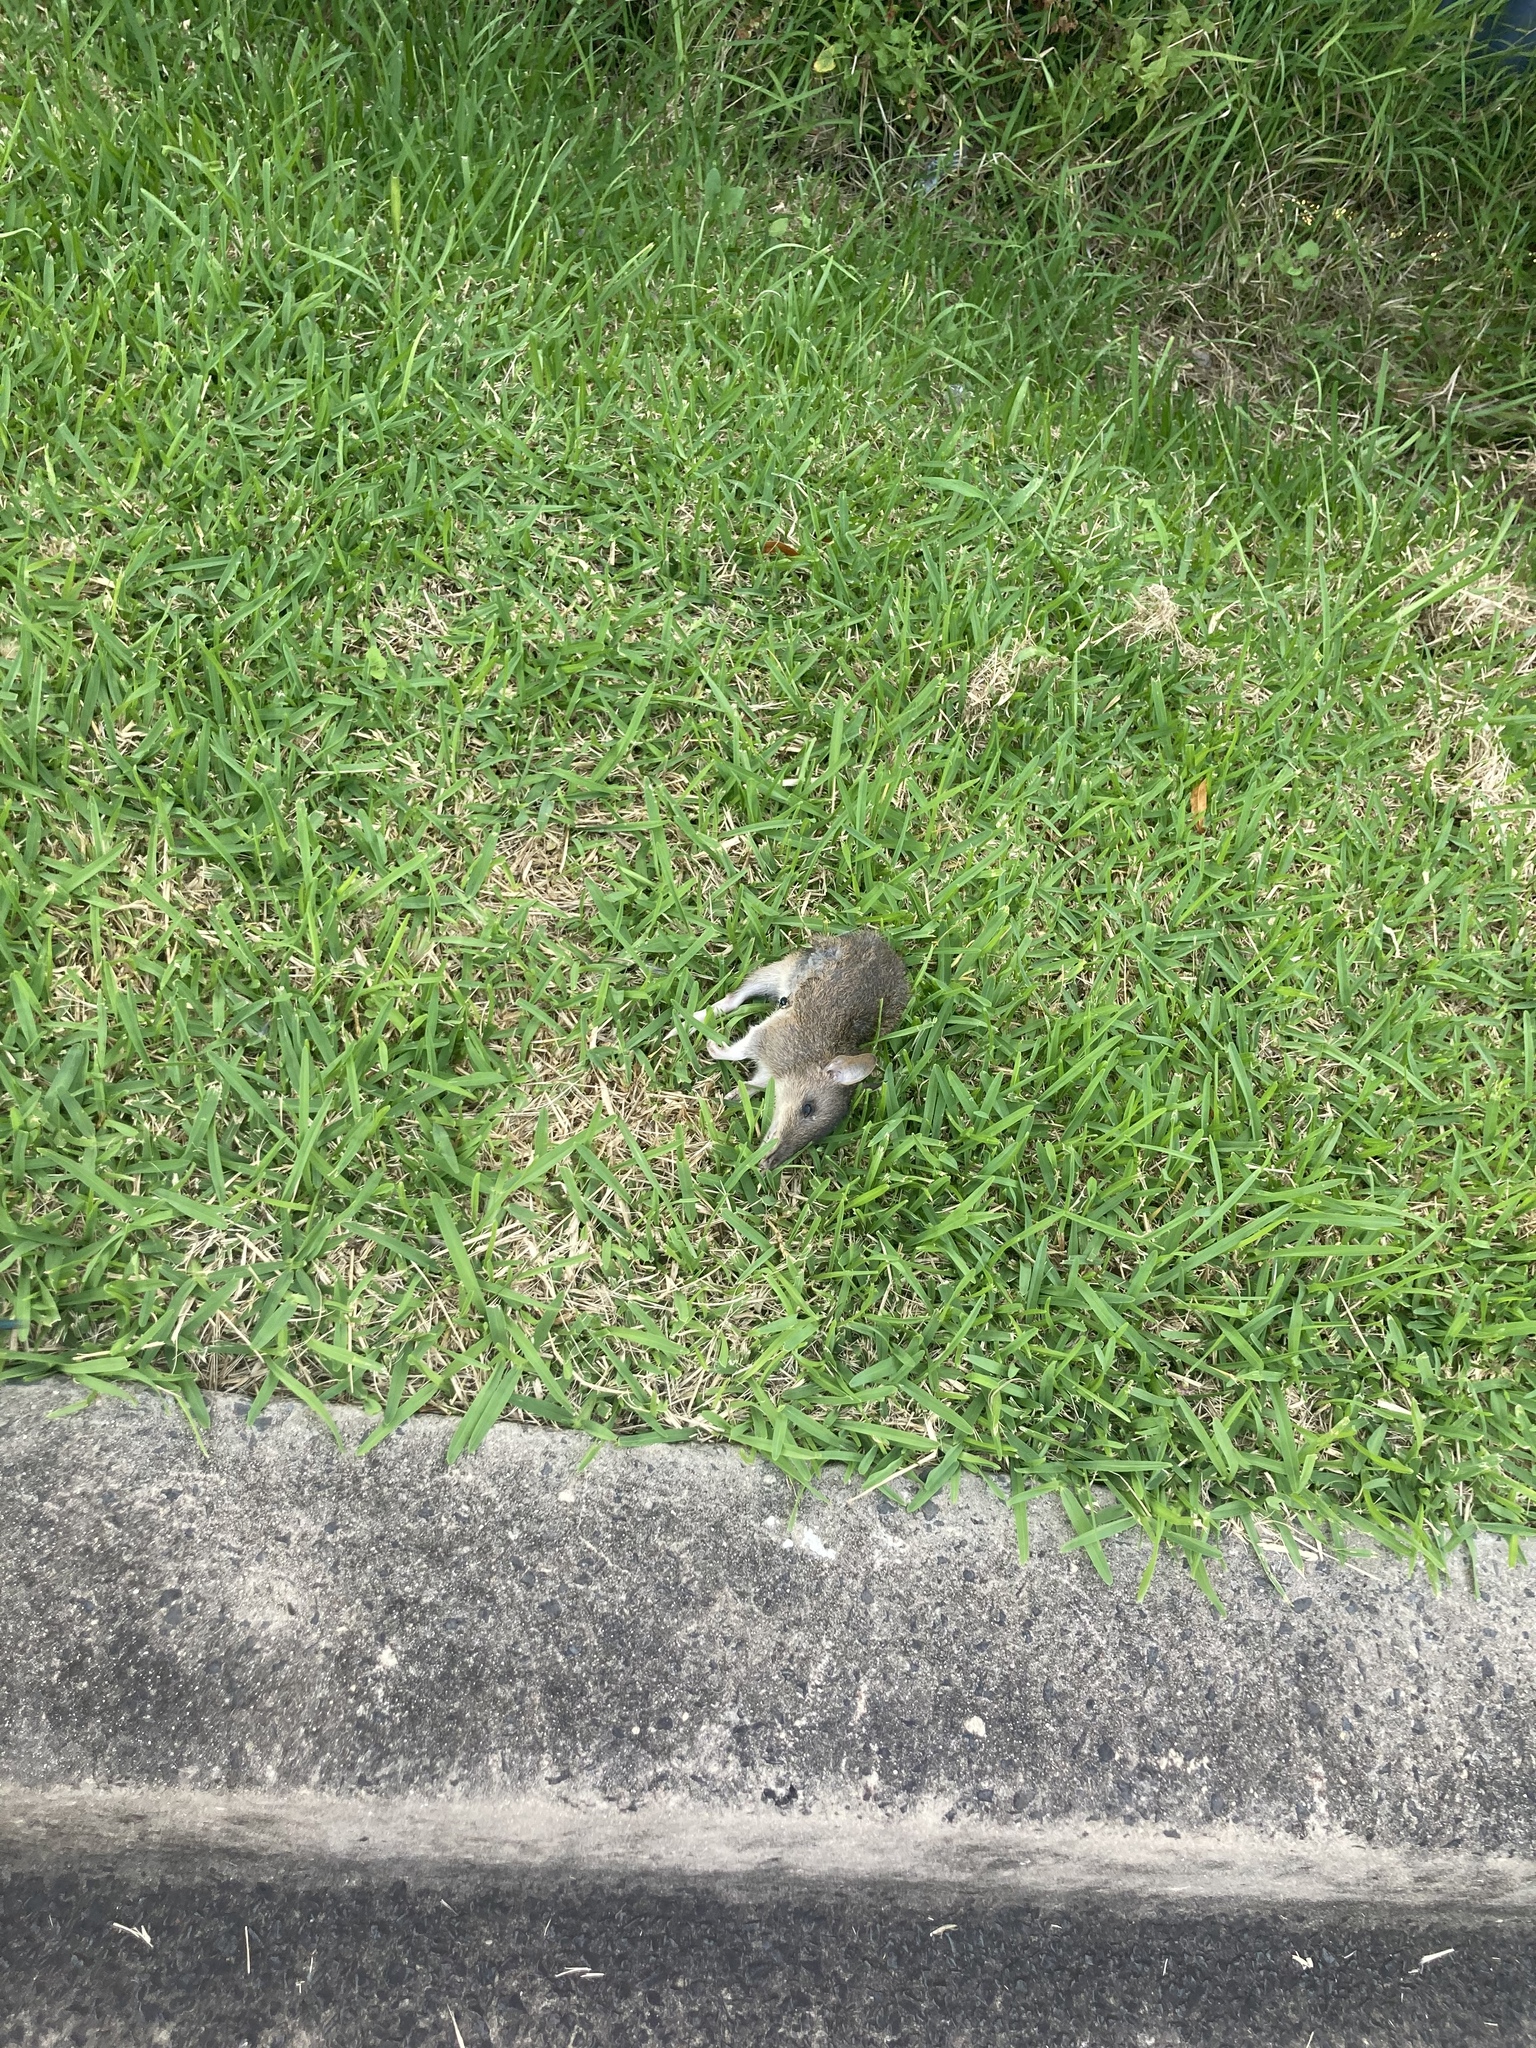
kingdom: Animalia
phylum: Chordata
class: Mammalia
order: Peramelemorphia
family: Peramelidae
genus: Perameles
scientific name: Perameles nasuta
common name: Long-nosed bandicoot
